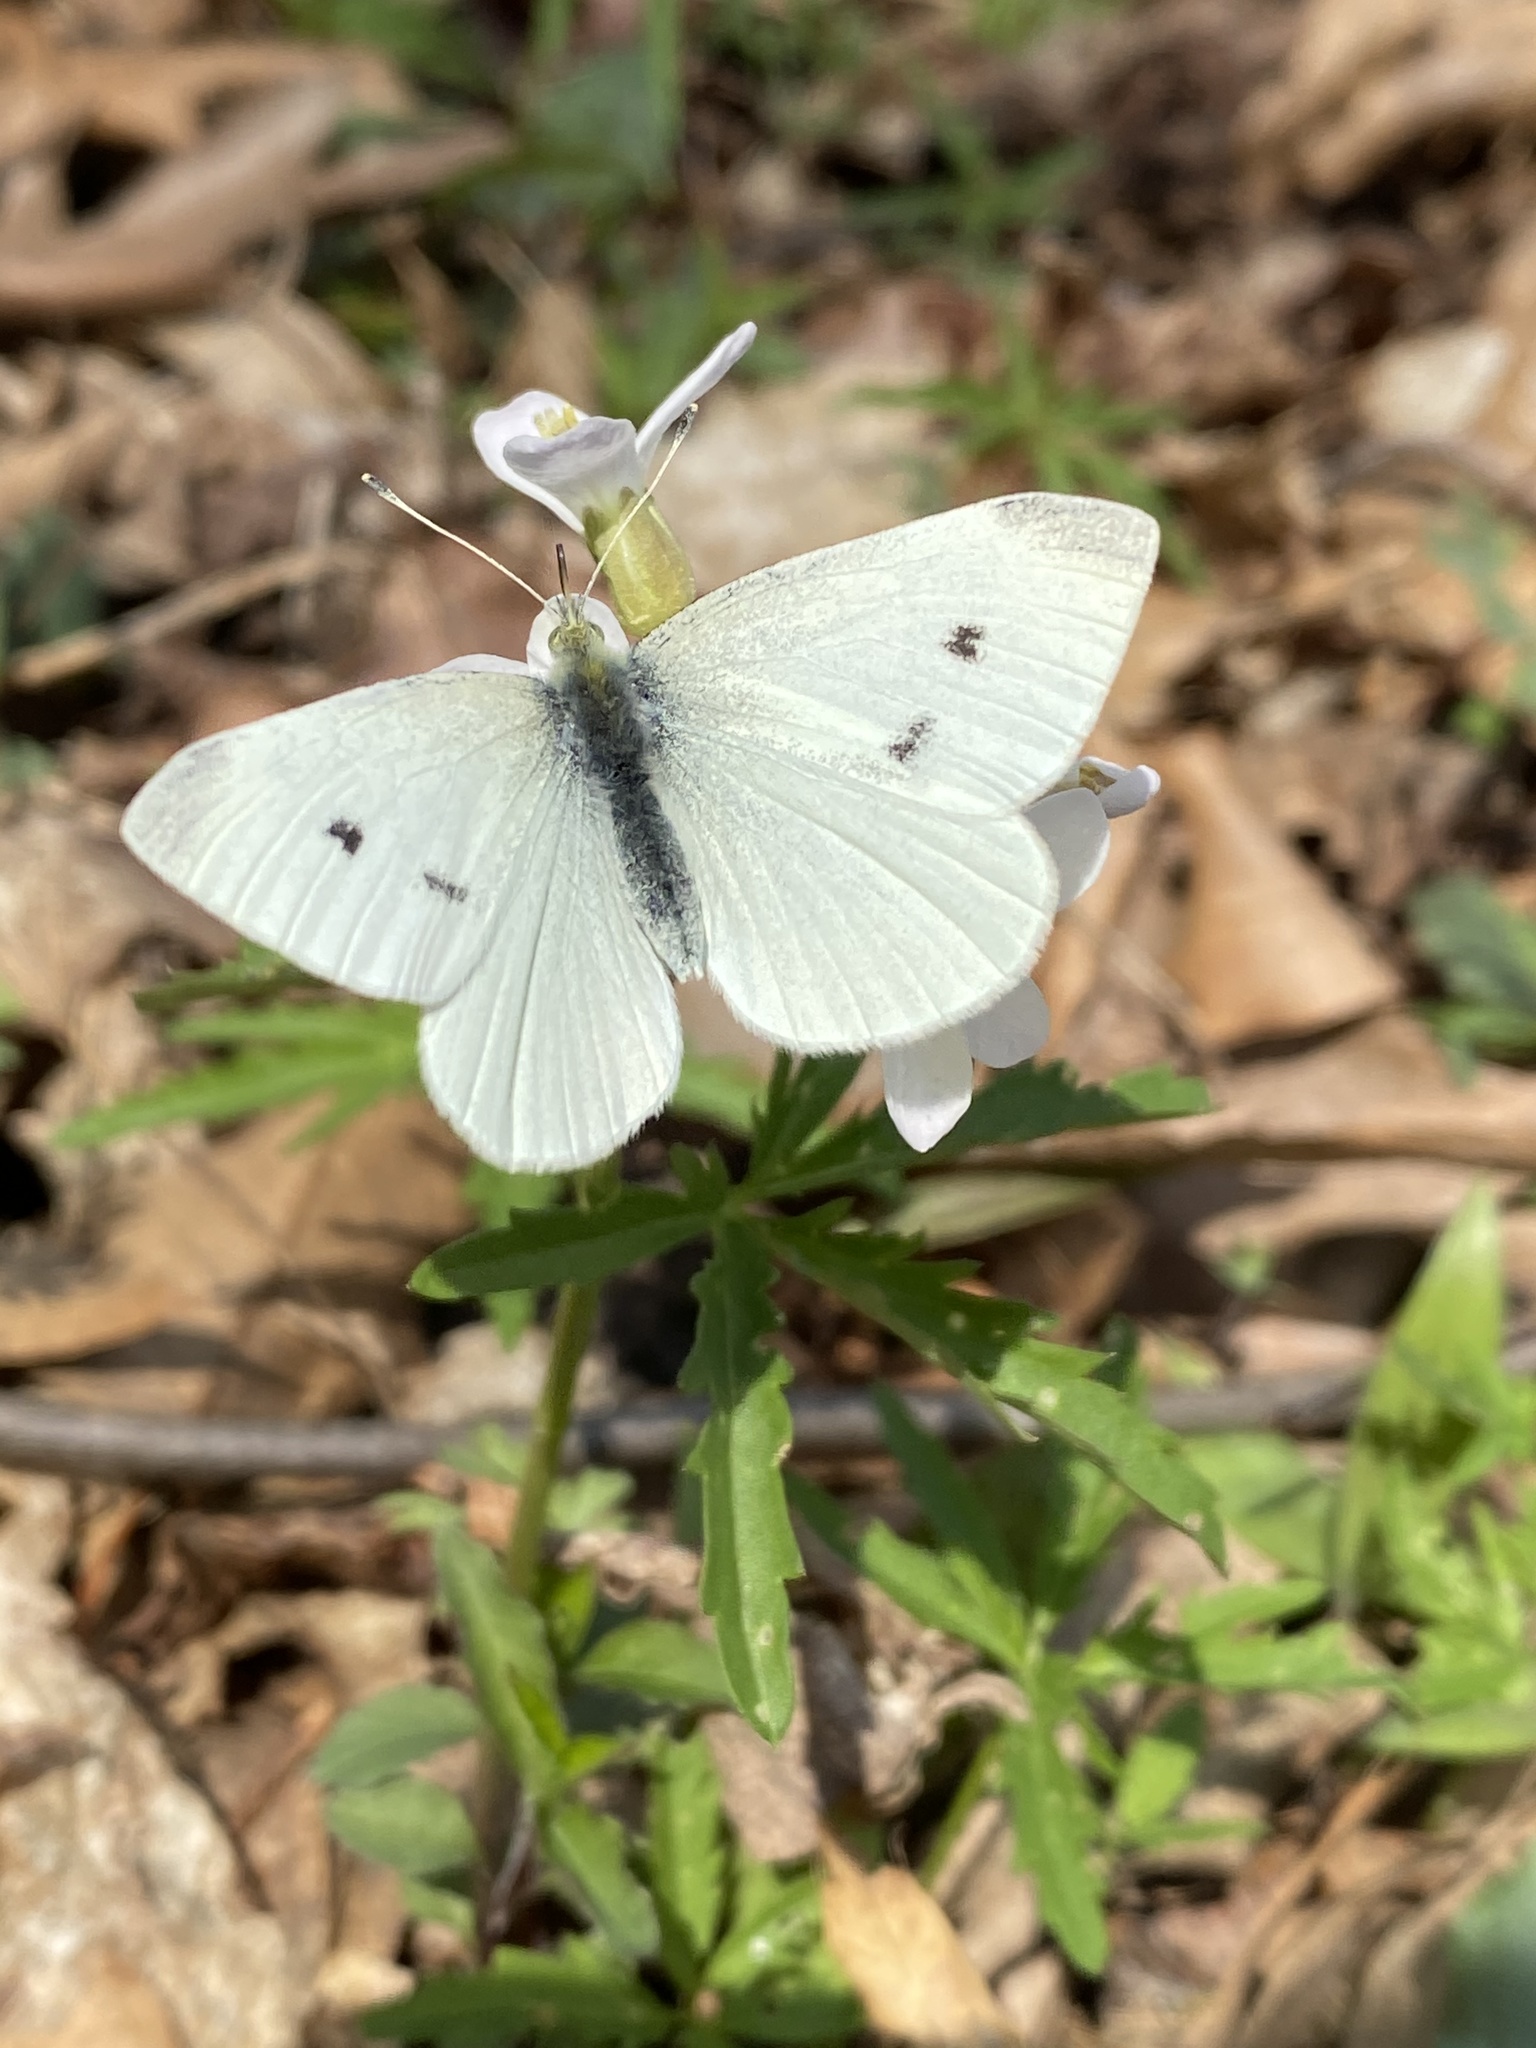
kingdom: Animalia
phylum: Arthropoda
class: Insecta
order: Lepidoptera
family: Pieridae
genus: Pieris
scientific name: Pieris rapae
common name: Small white
